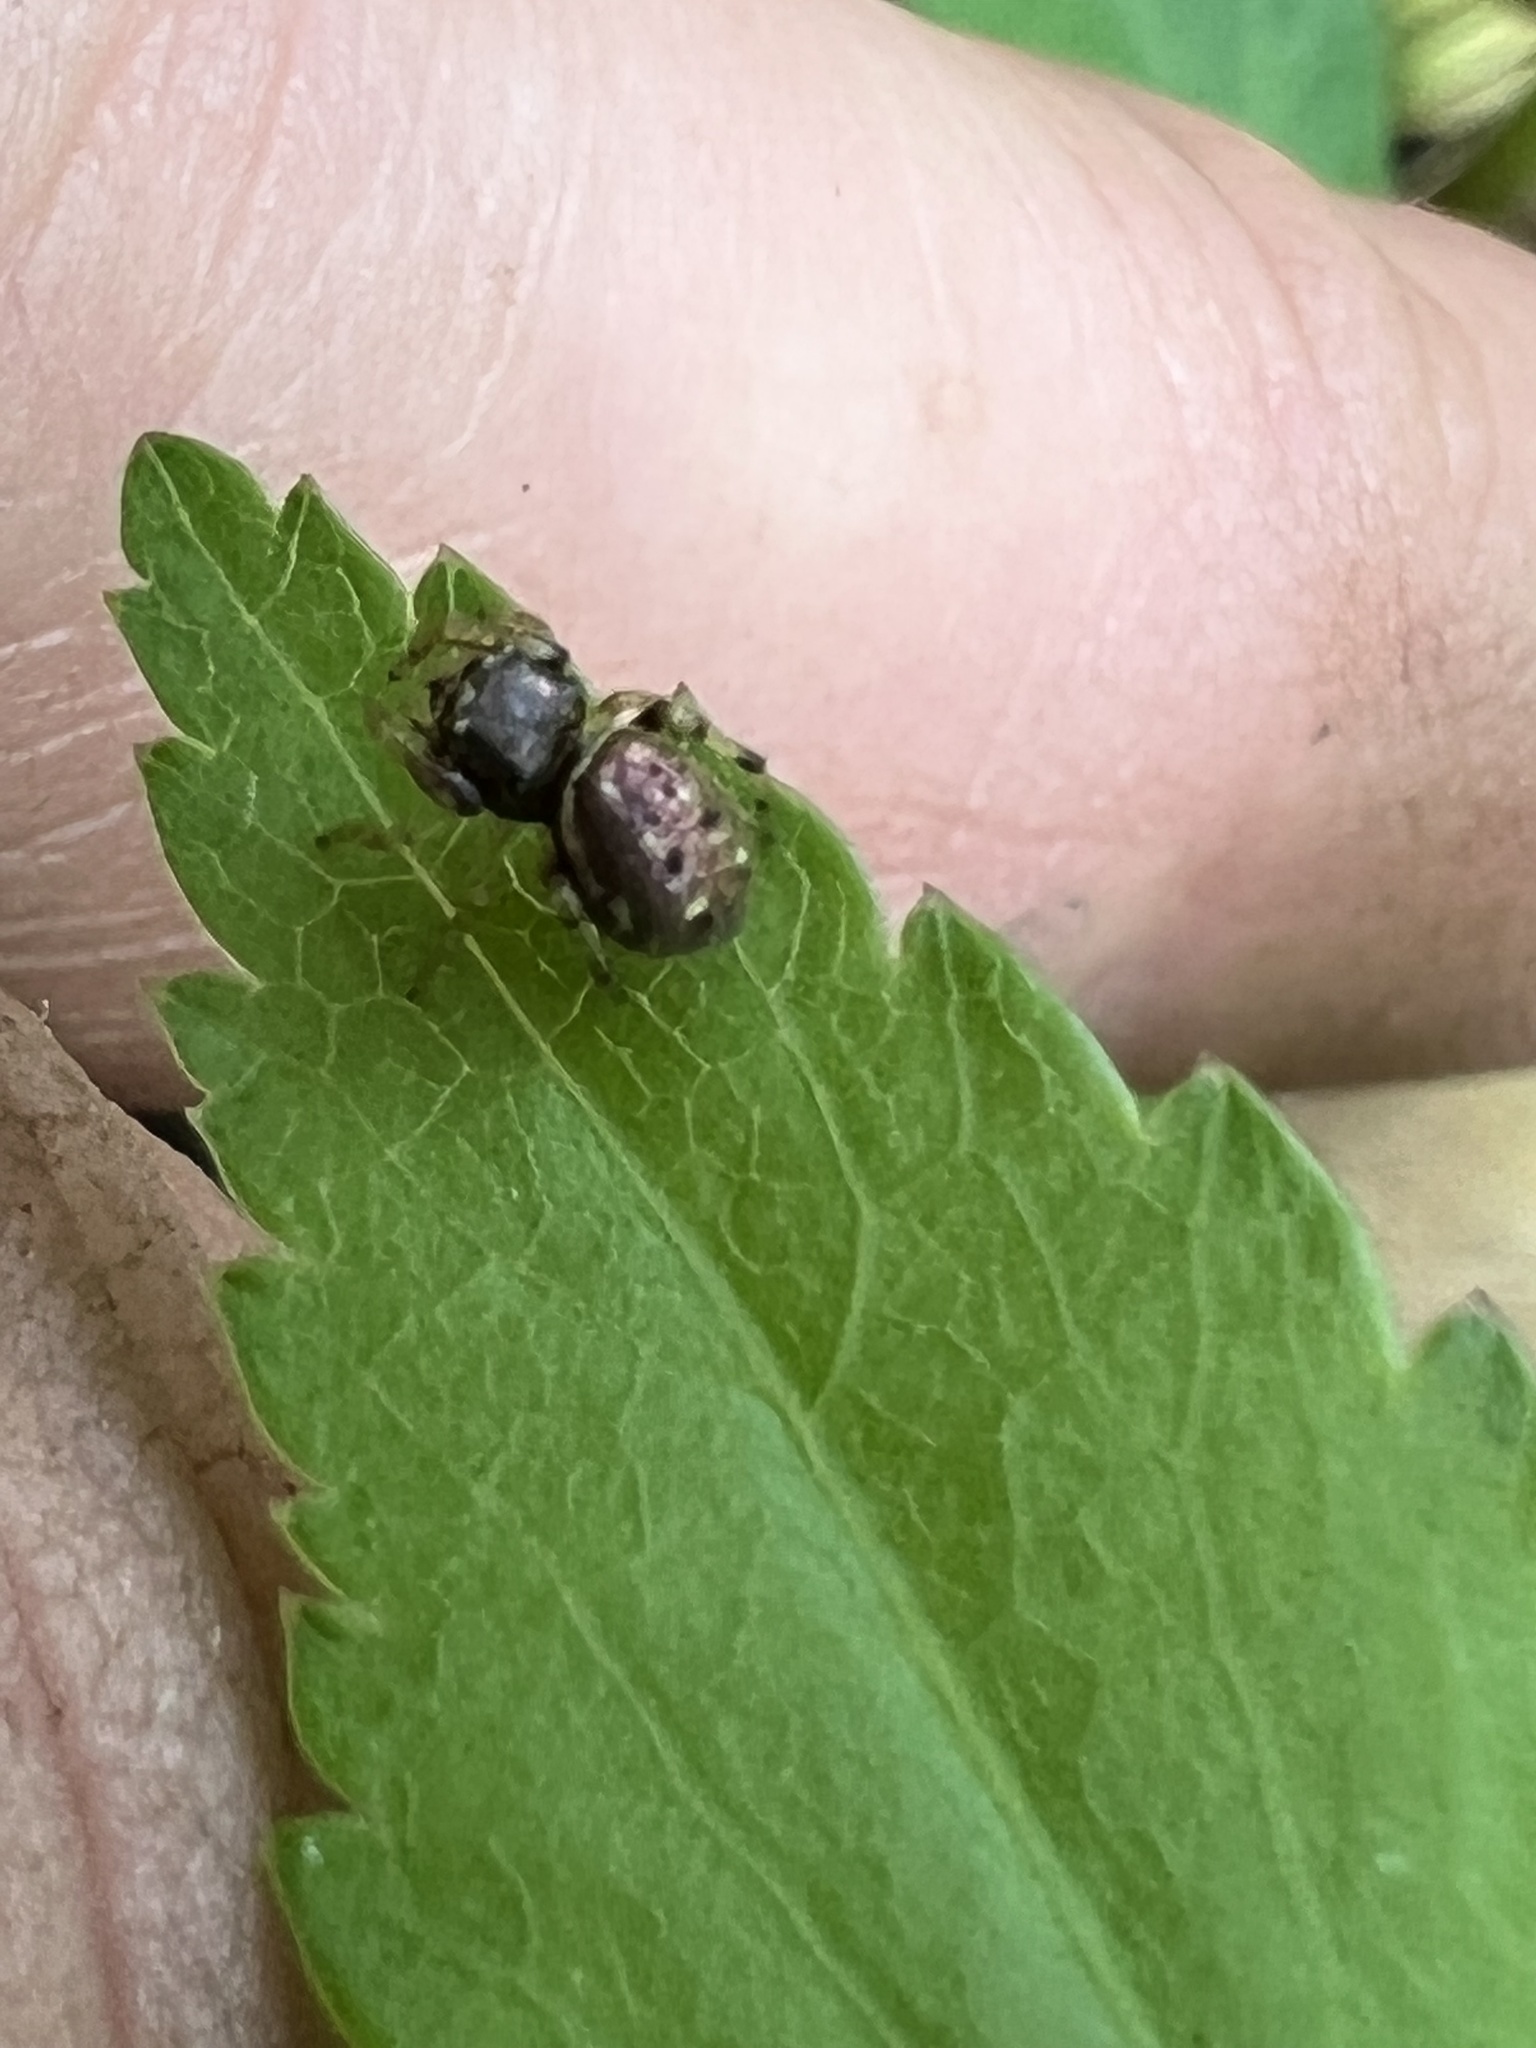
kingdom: Animalia
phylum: Arthropoda
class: Arachnida
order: Araneae
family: Salticidae
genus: Zygoballus
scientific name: Zygoballus rufipes
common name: Jumping spiders
